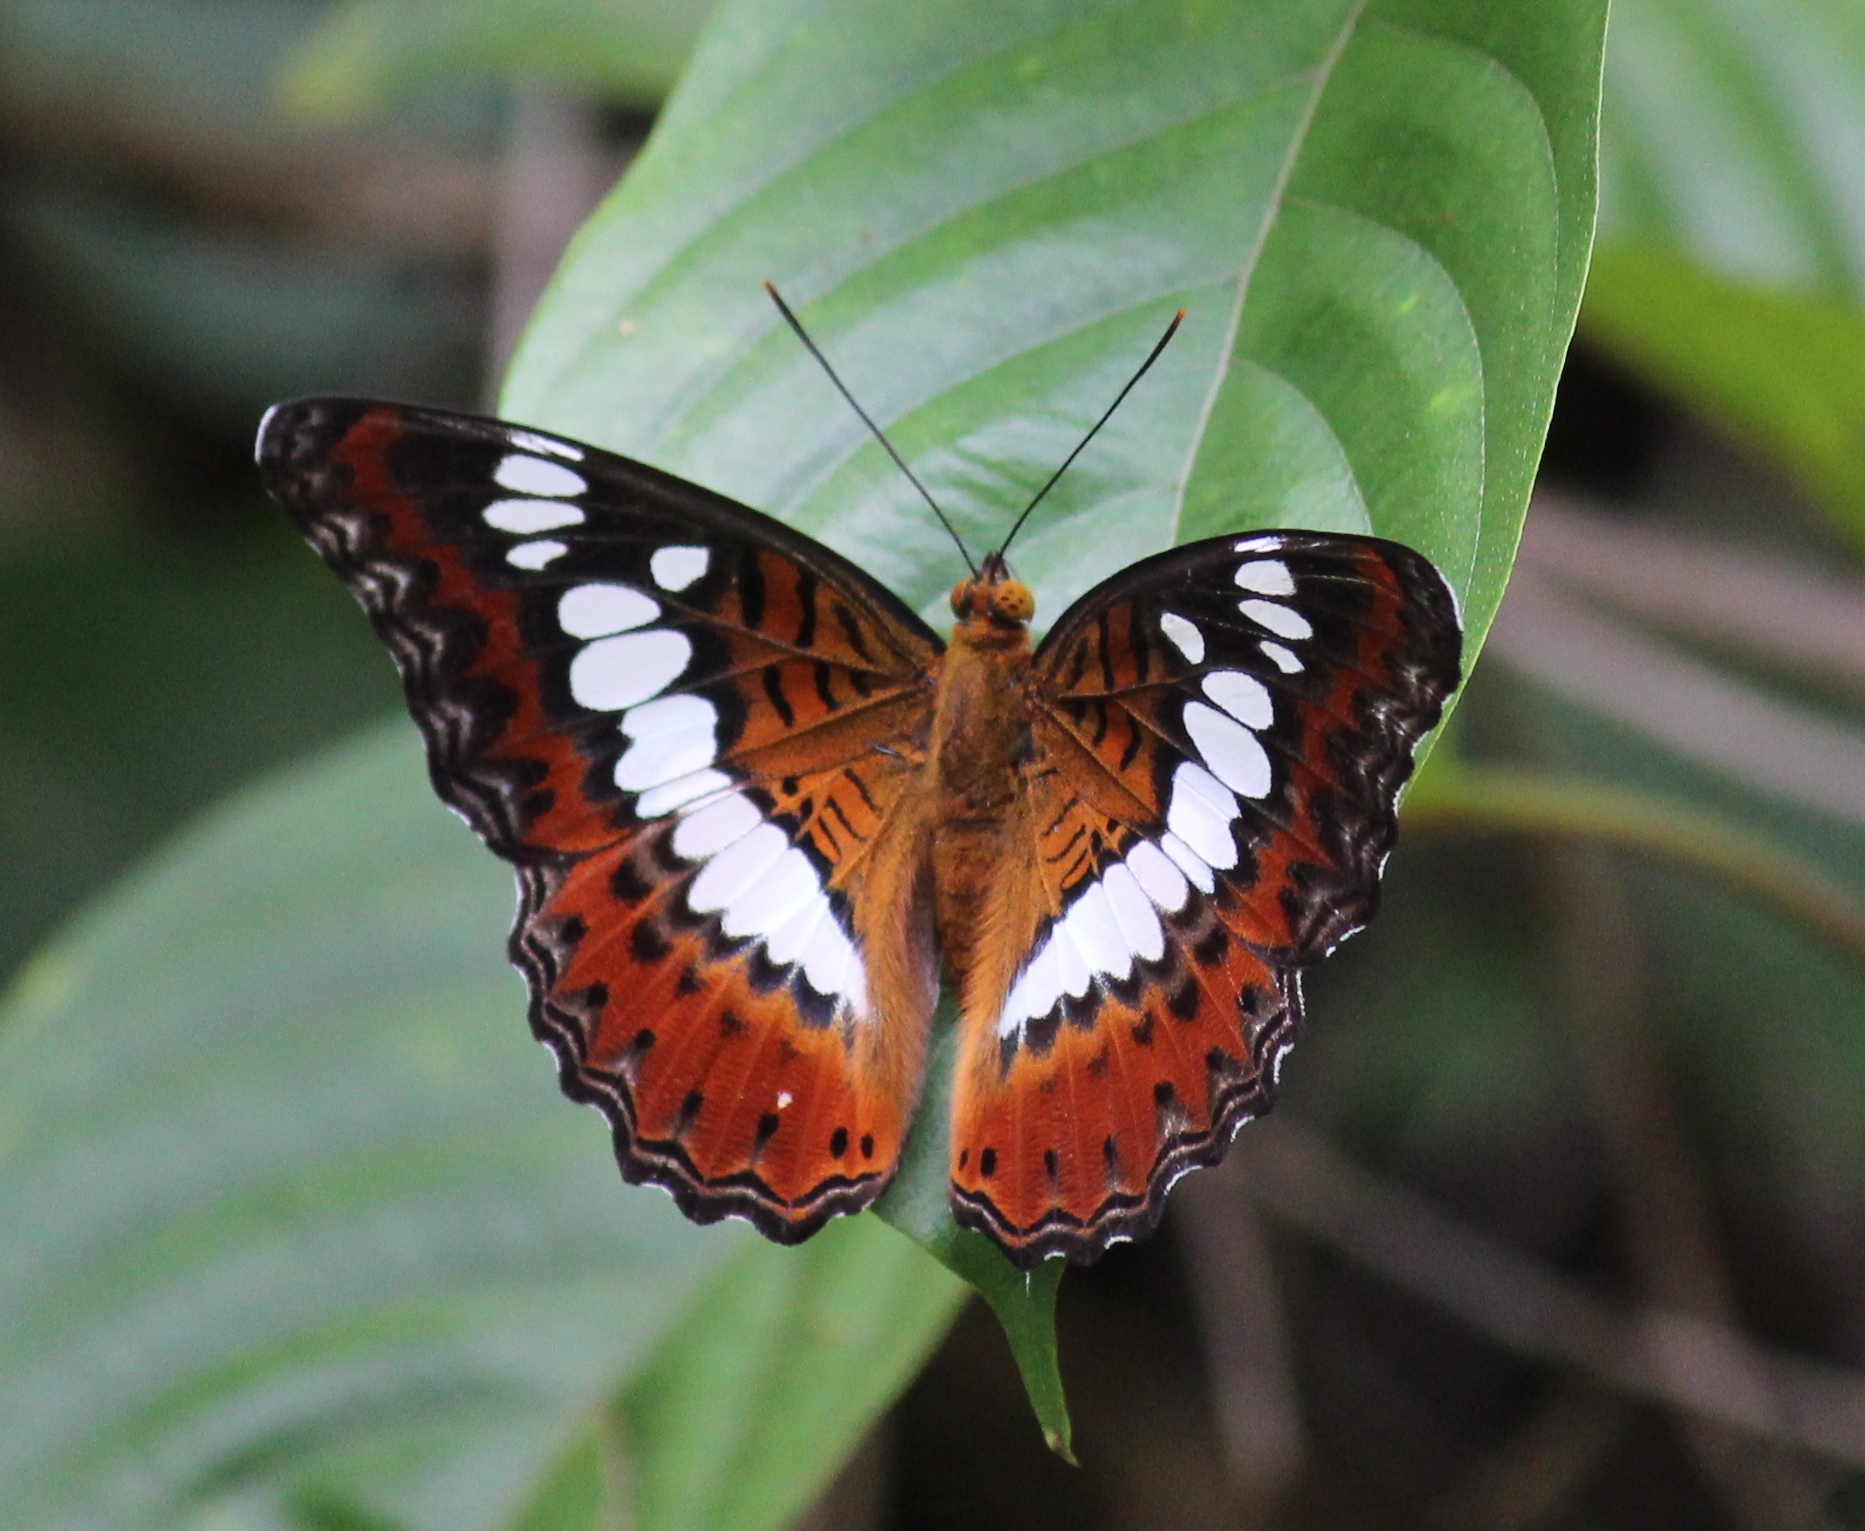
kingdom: Animalia
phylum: Arthropoda
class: Insecta
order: Lepidoptera
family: Nymphalidae
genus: Limenitis
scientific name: Limenitis Moduza procris
